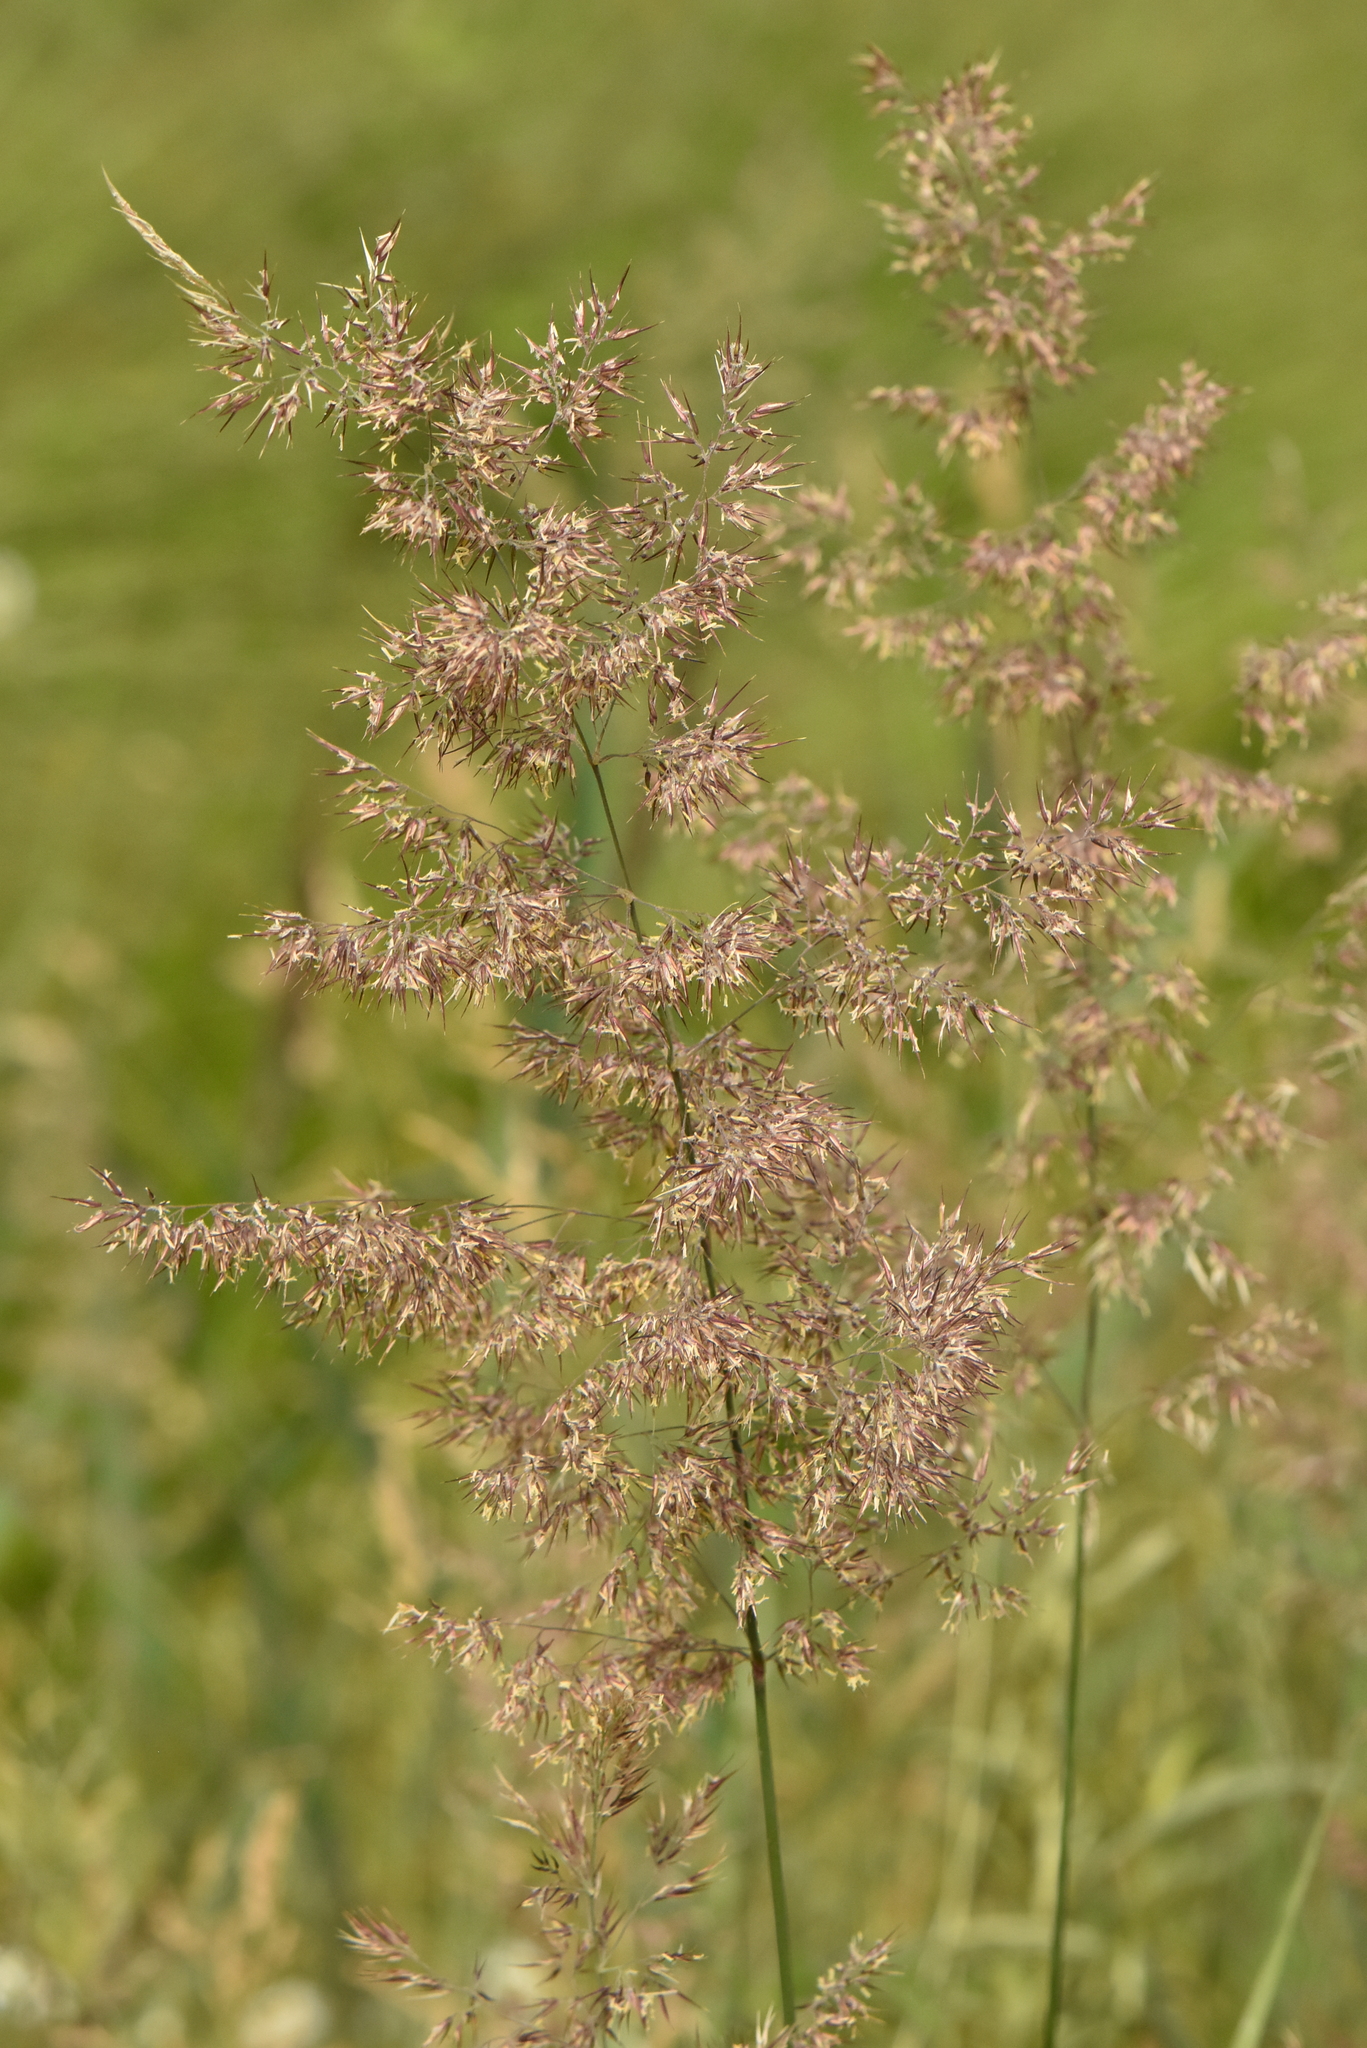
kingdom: Plantae
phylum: Tracheophyta
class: Liliopsida
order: Poales
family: Poaceae
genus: Calamagrostis
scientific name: Calamagrostis epigejos
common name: Wood small-reed
